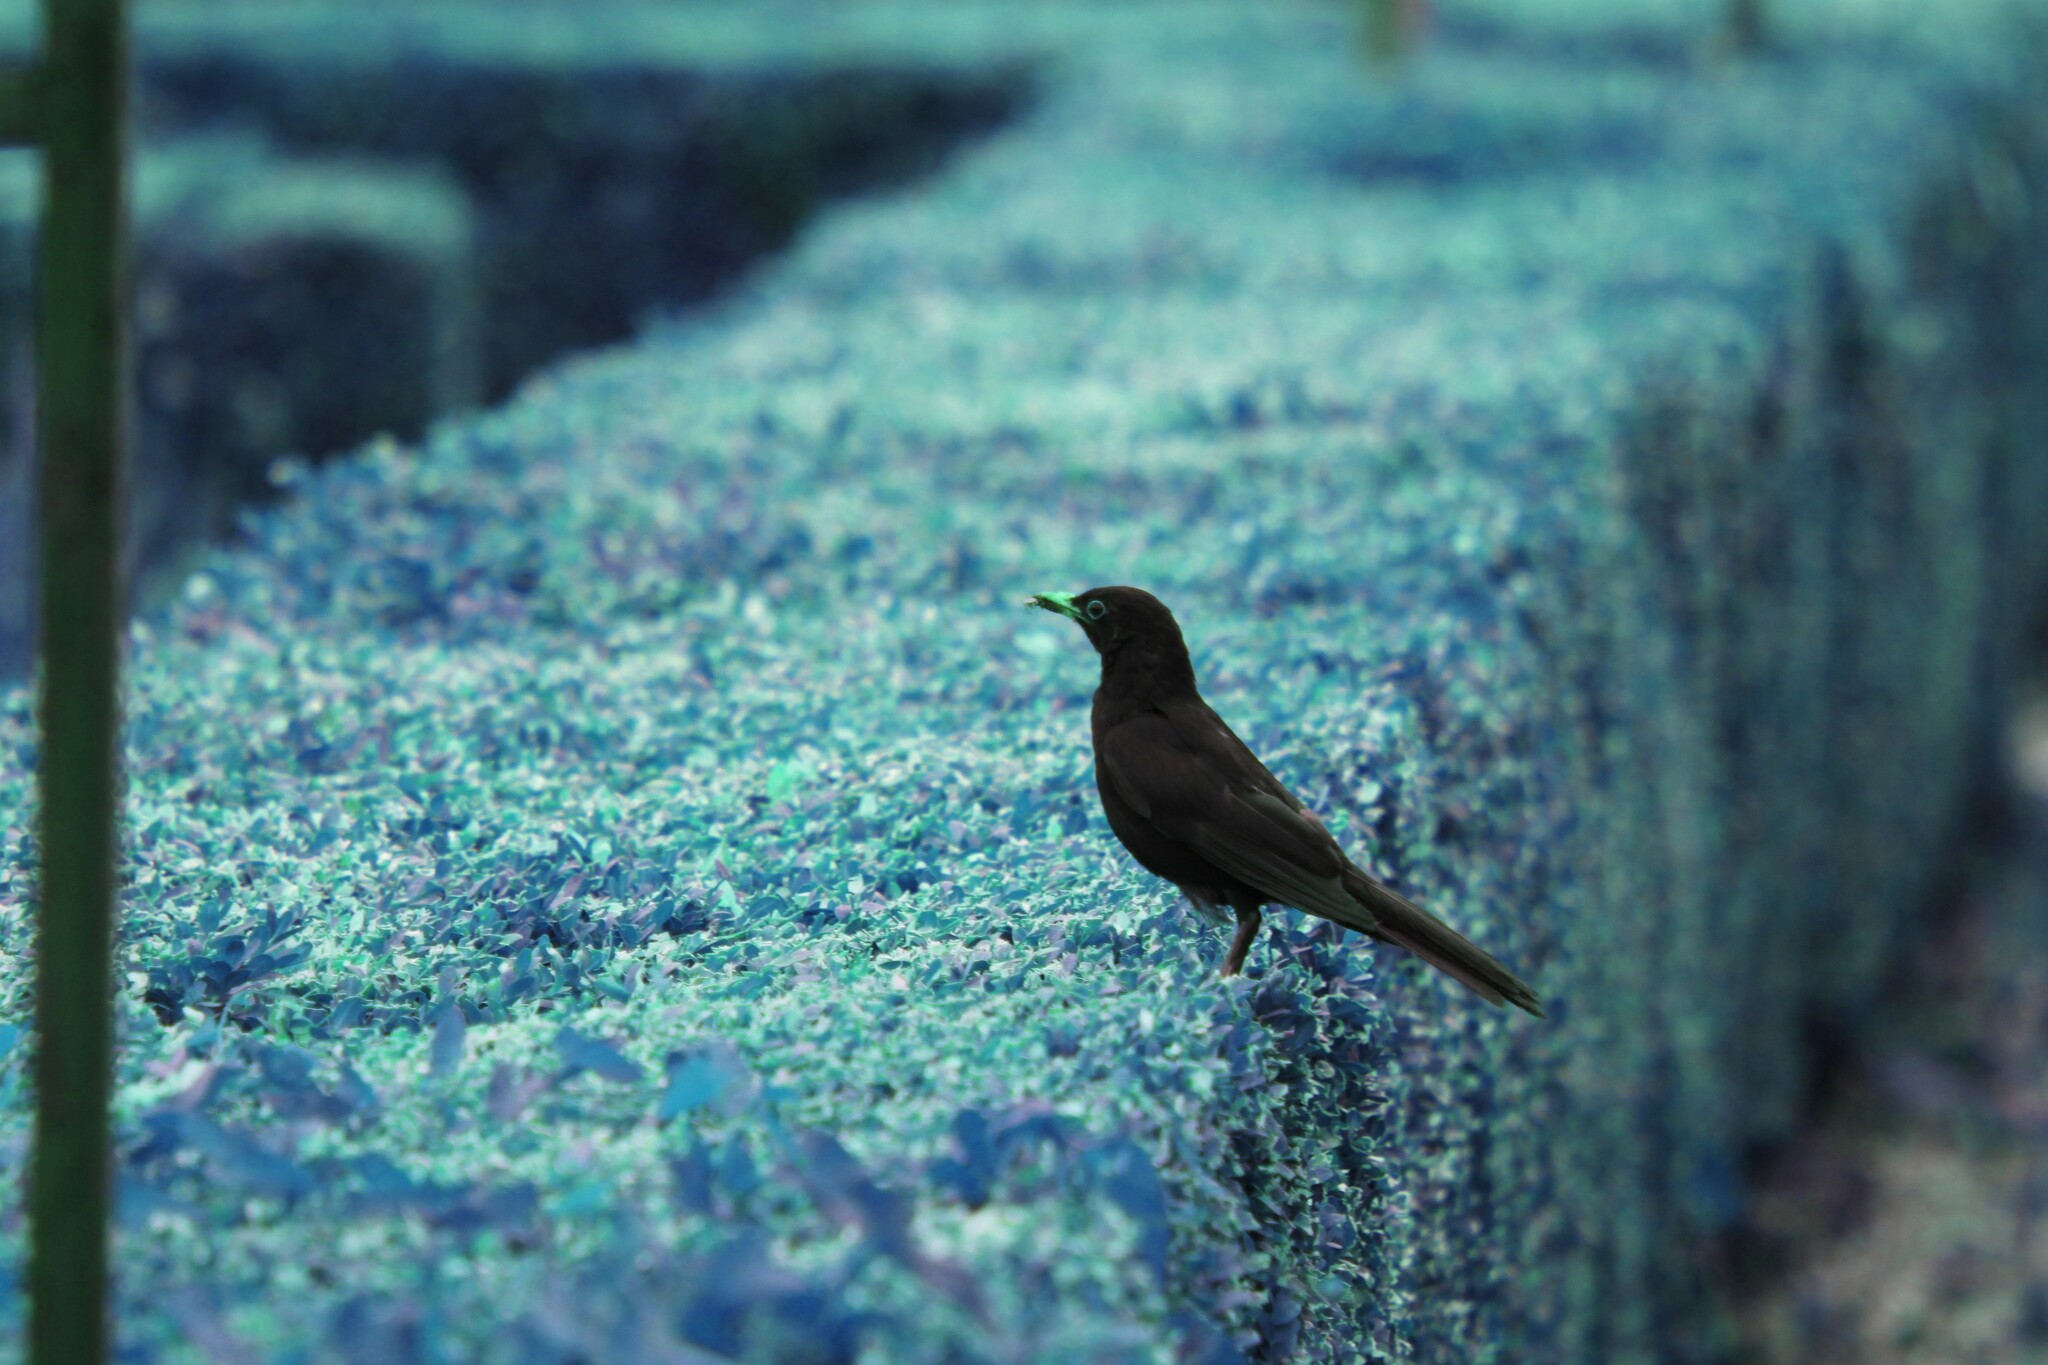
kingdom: Animalia
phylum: Chordata
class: Aves
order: Passeriformes
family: Turdidae
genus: Turdus
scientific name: Turdus merula
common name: Common blackbird
